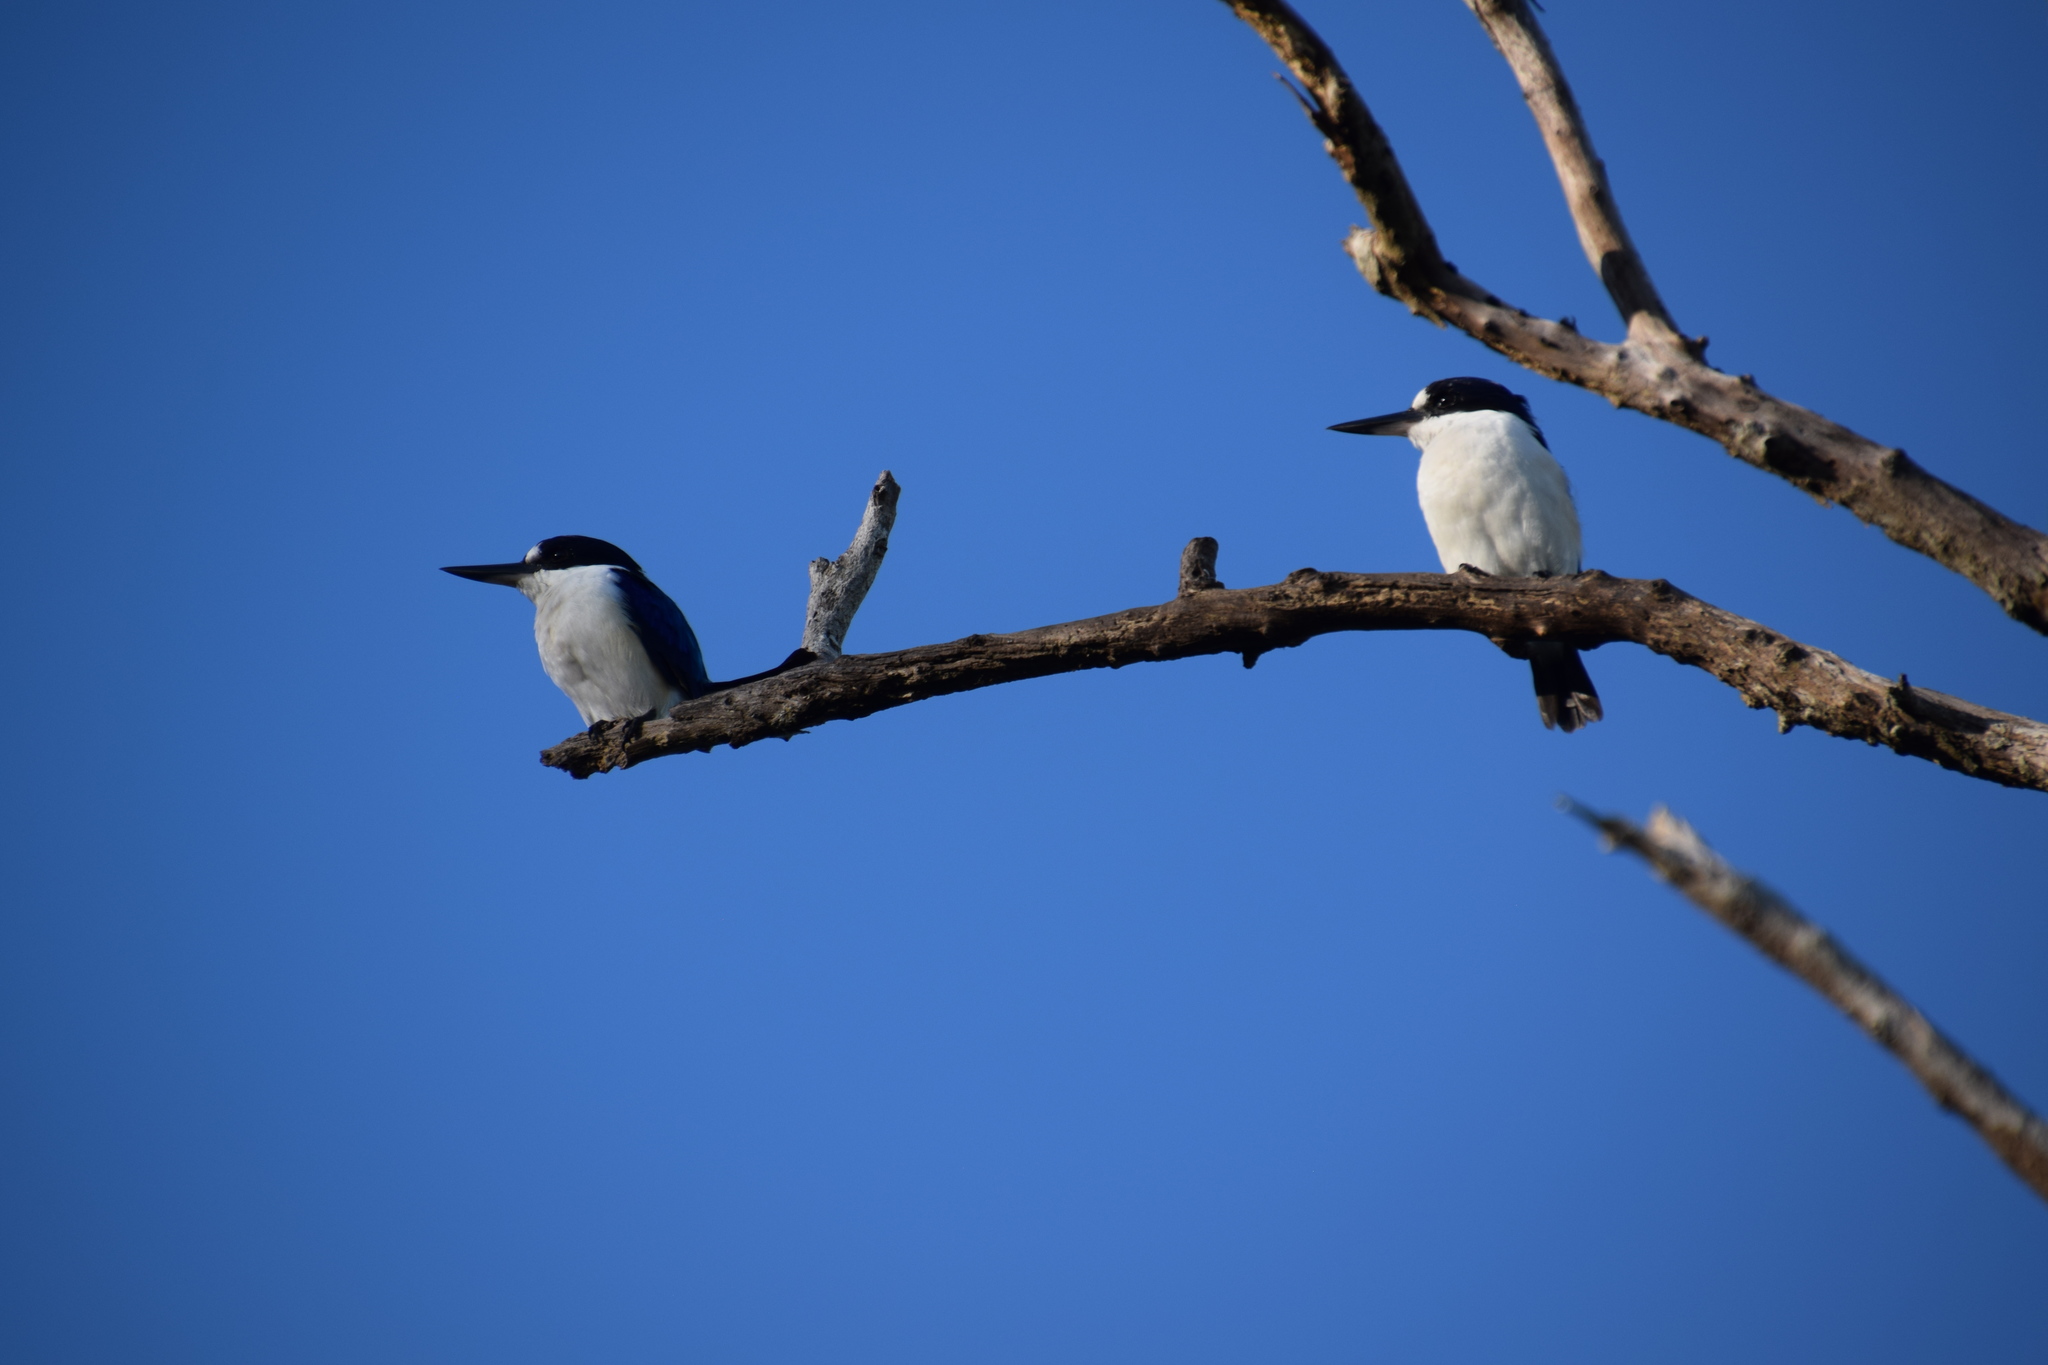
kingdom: Animalia
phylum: Chordata
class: Aves
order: Coraciiformes
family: Alcedinidae
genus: Todiramphus
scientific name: Todiramphus macleayii
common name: Forest kingfisher
